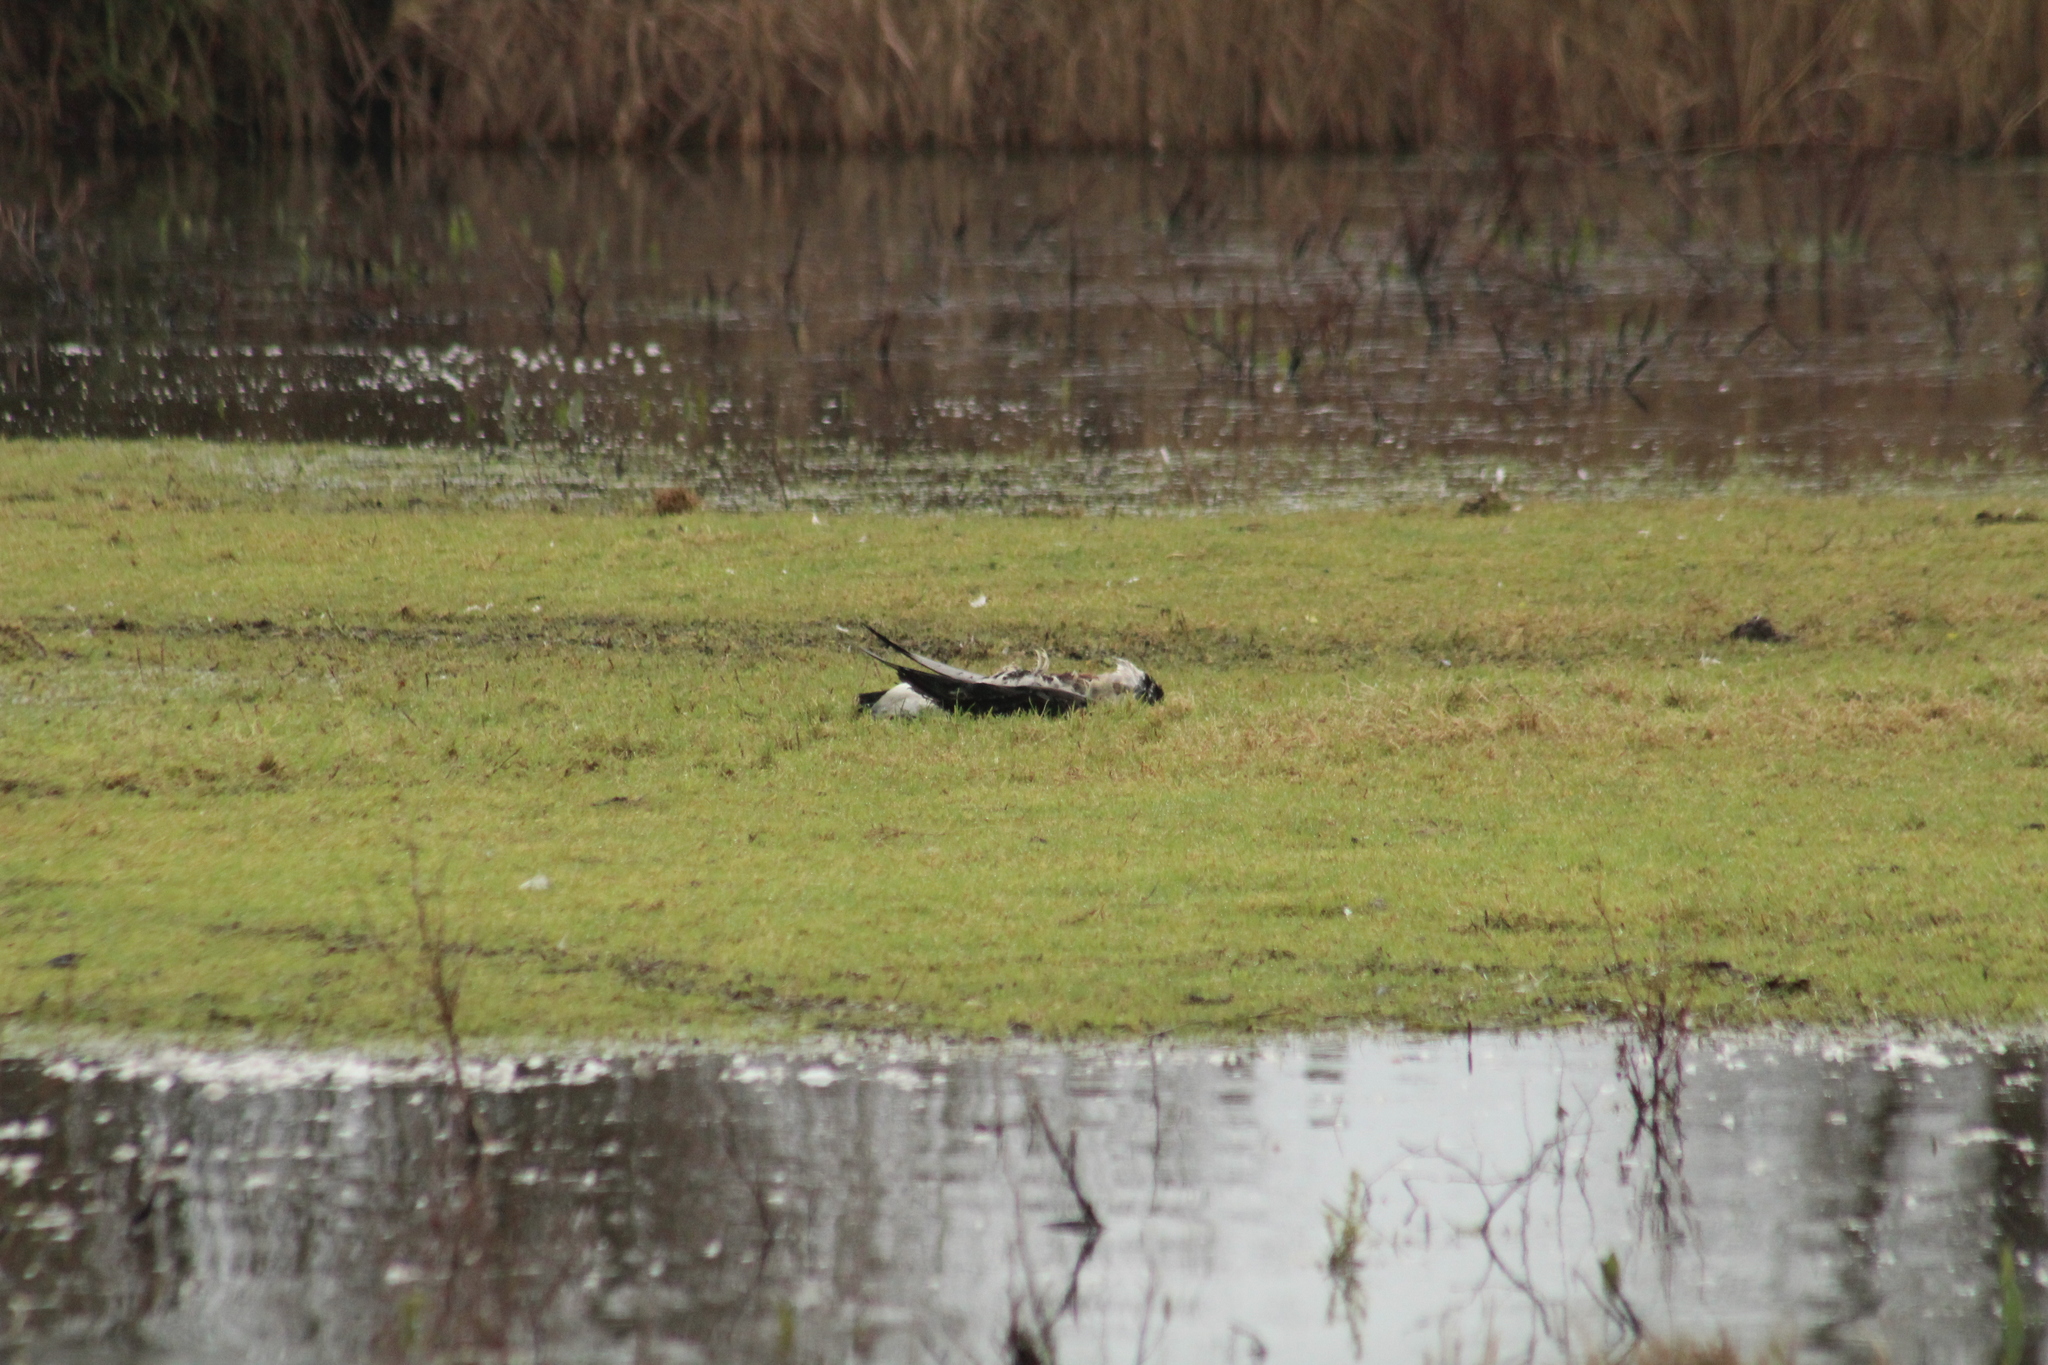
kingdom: Animalia
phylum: Chordata
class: Aves
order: Anseriformes
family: Anatidae
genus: Branta
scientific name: Branta leucopsis
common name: Barnacle goose
